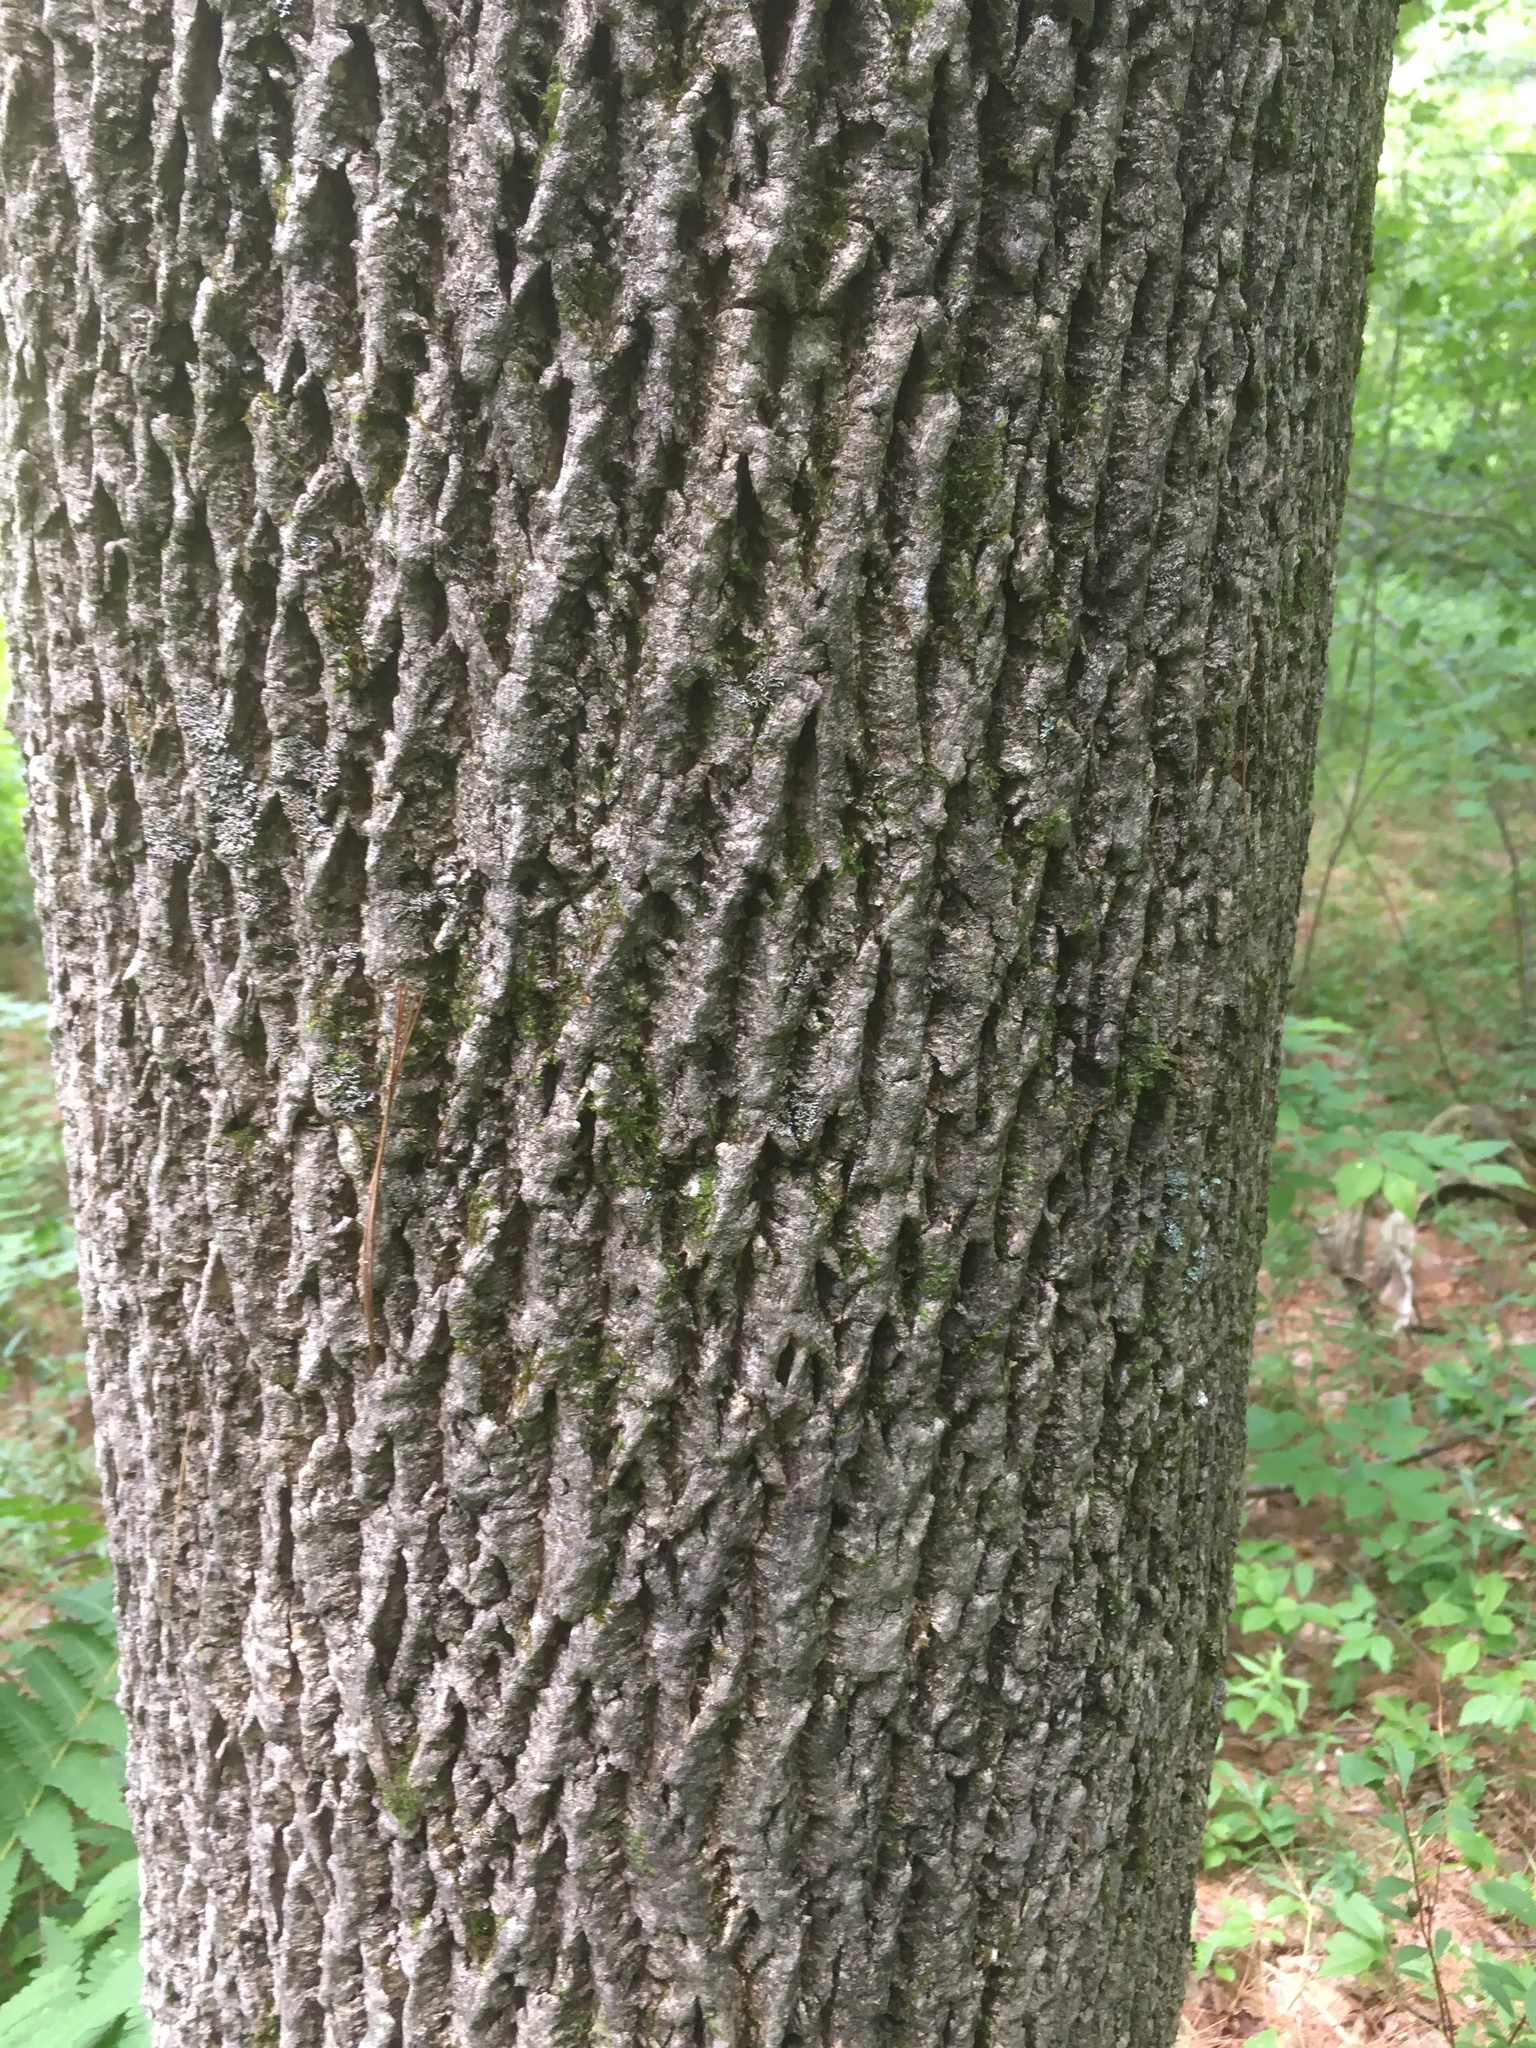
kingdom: Plantae
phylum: Tracheophyta
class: Magnoliopsida
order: Lamiales
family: Oleaceae
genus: Fraxinus
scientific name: Fraxinus americana
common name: White ash
